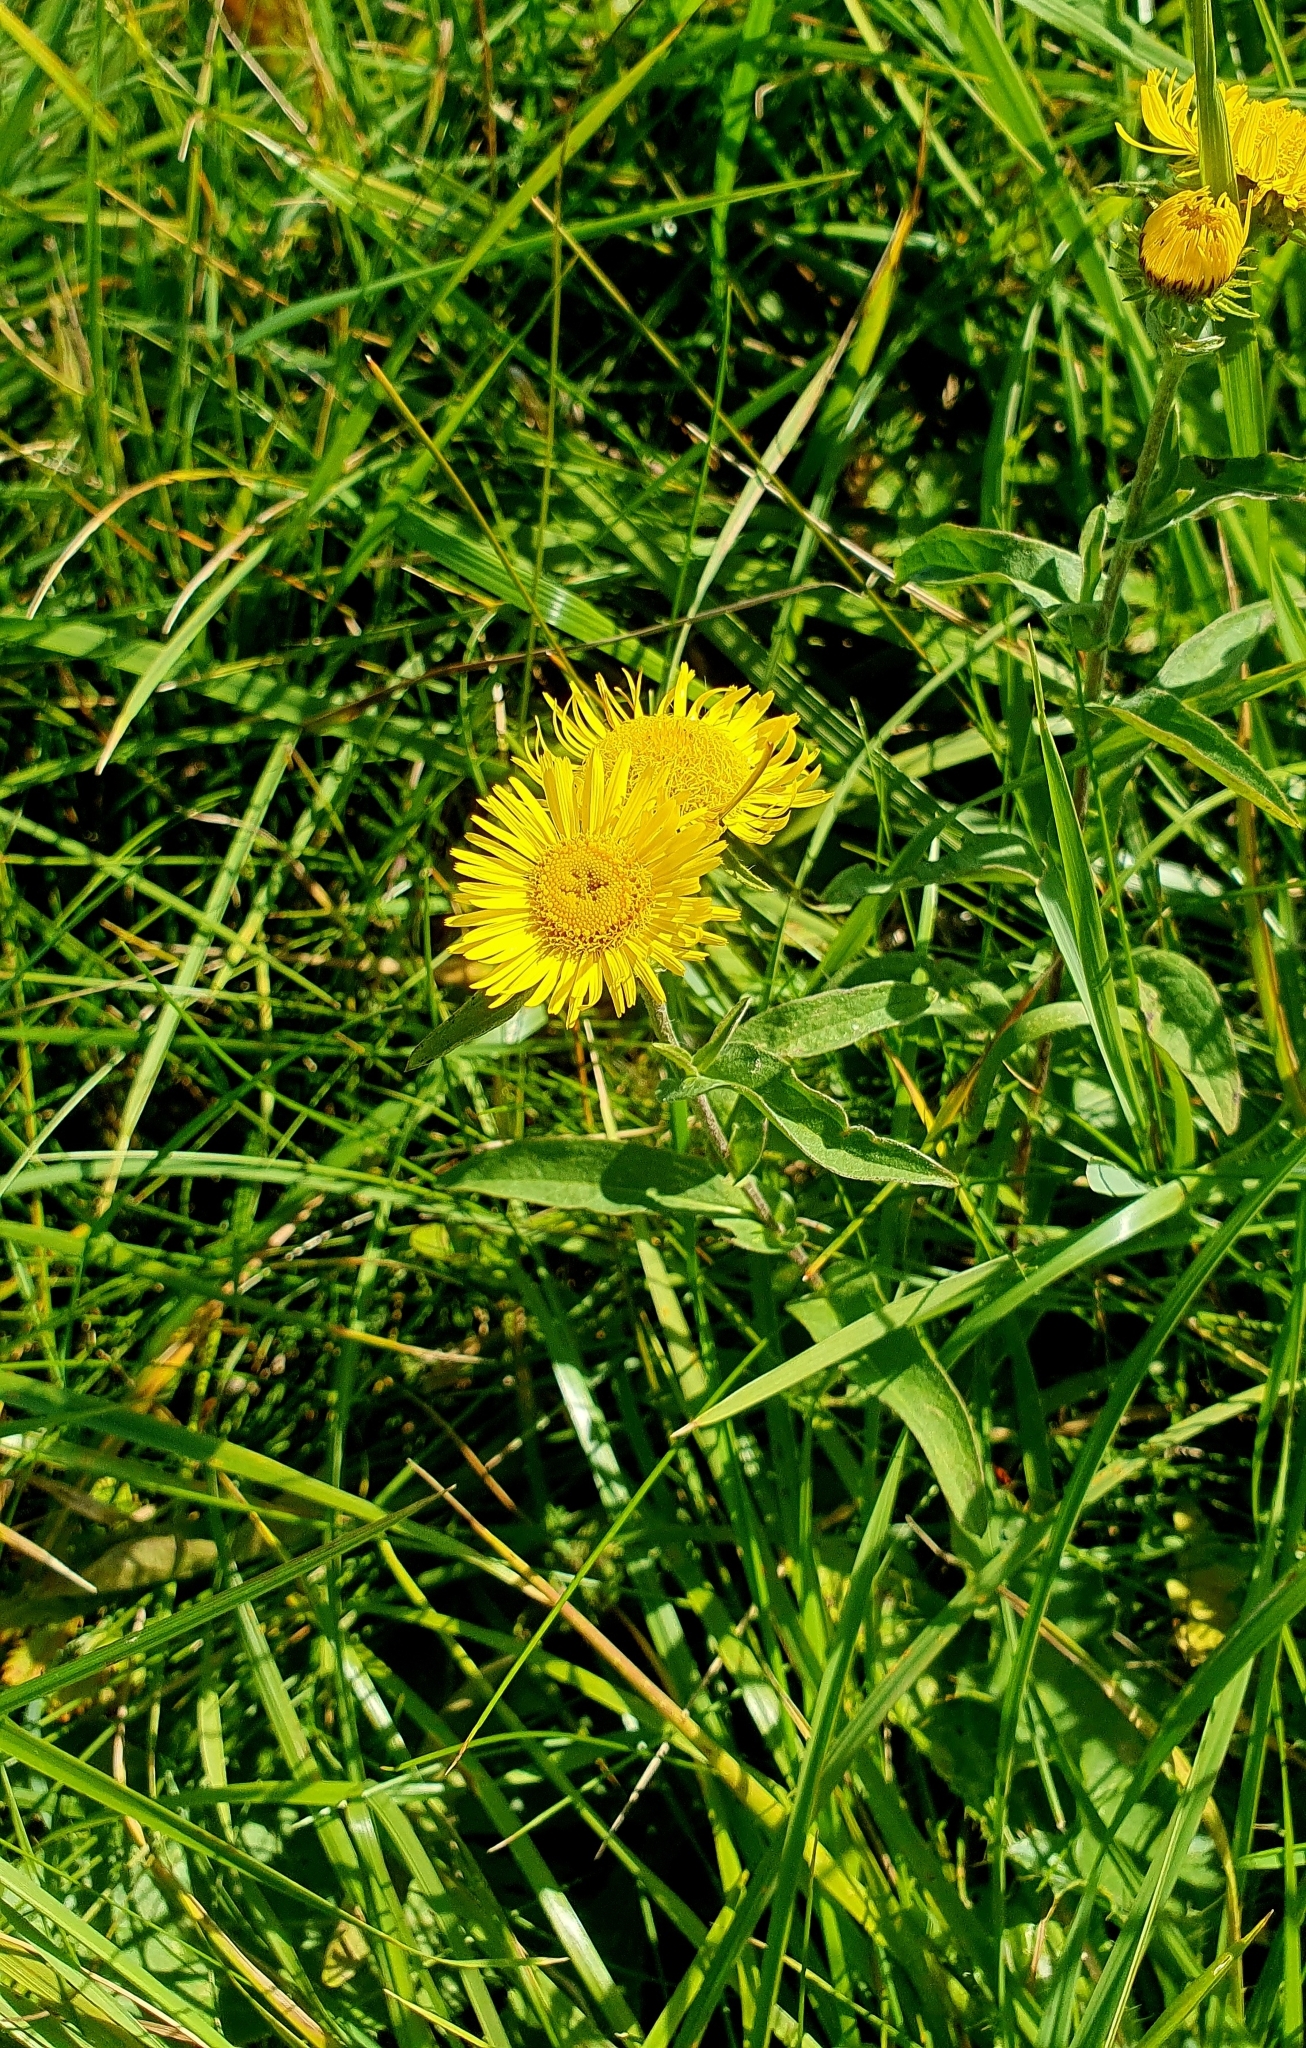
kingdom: Plantae
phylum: Tracheophyta
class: Magnoliopsida
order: Asterales
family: Asteraceae
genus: Pentanema
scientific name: Pentanema britannicum
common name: British elecampane
